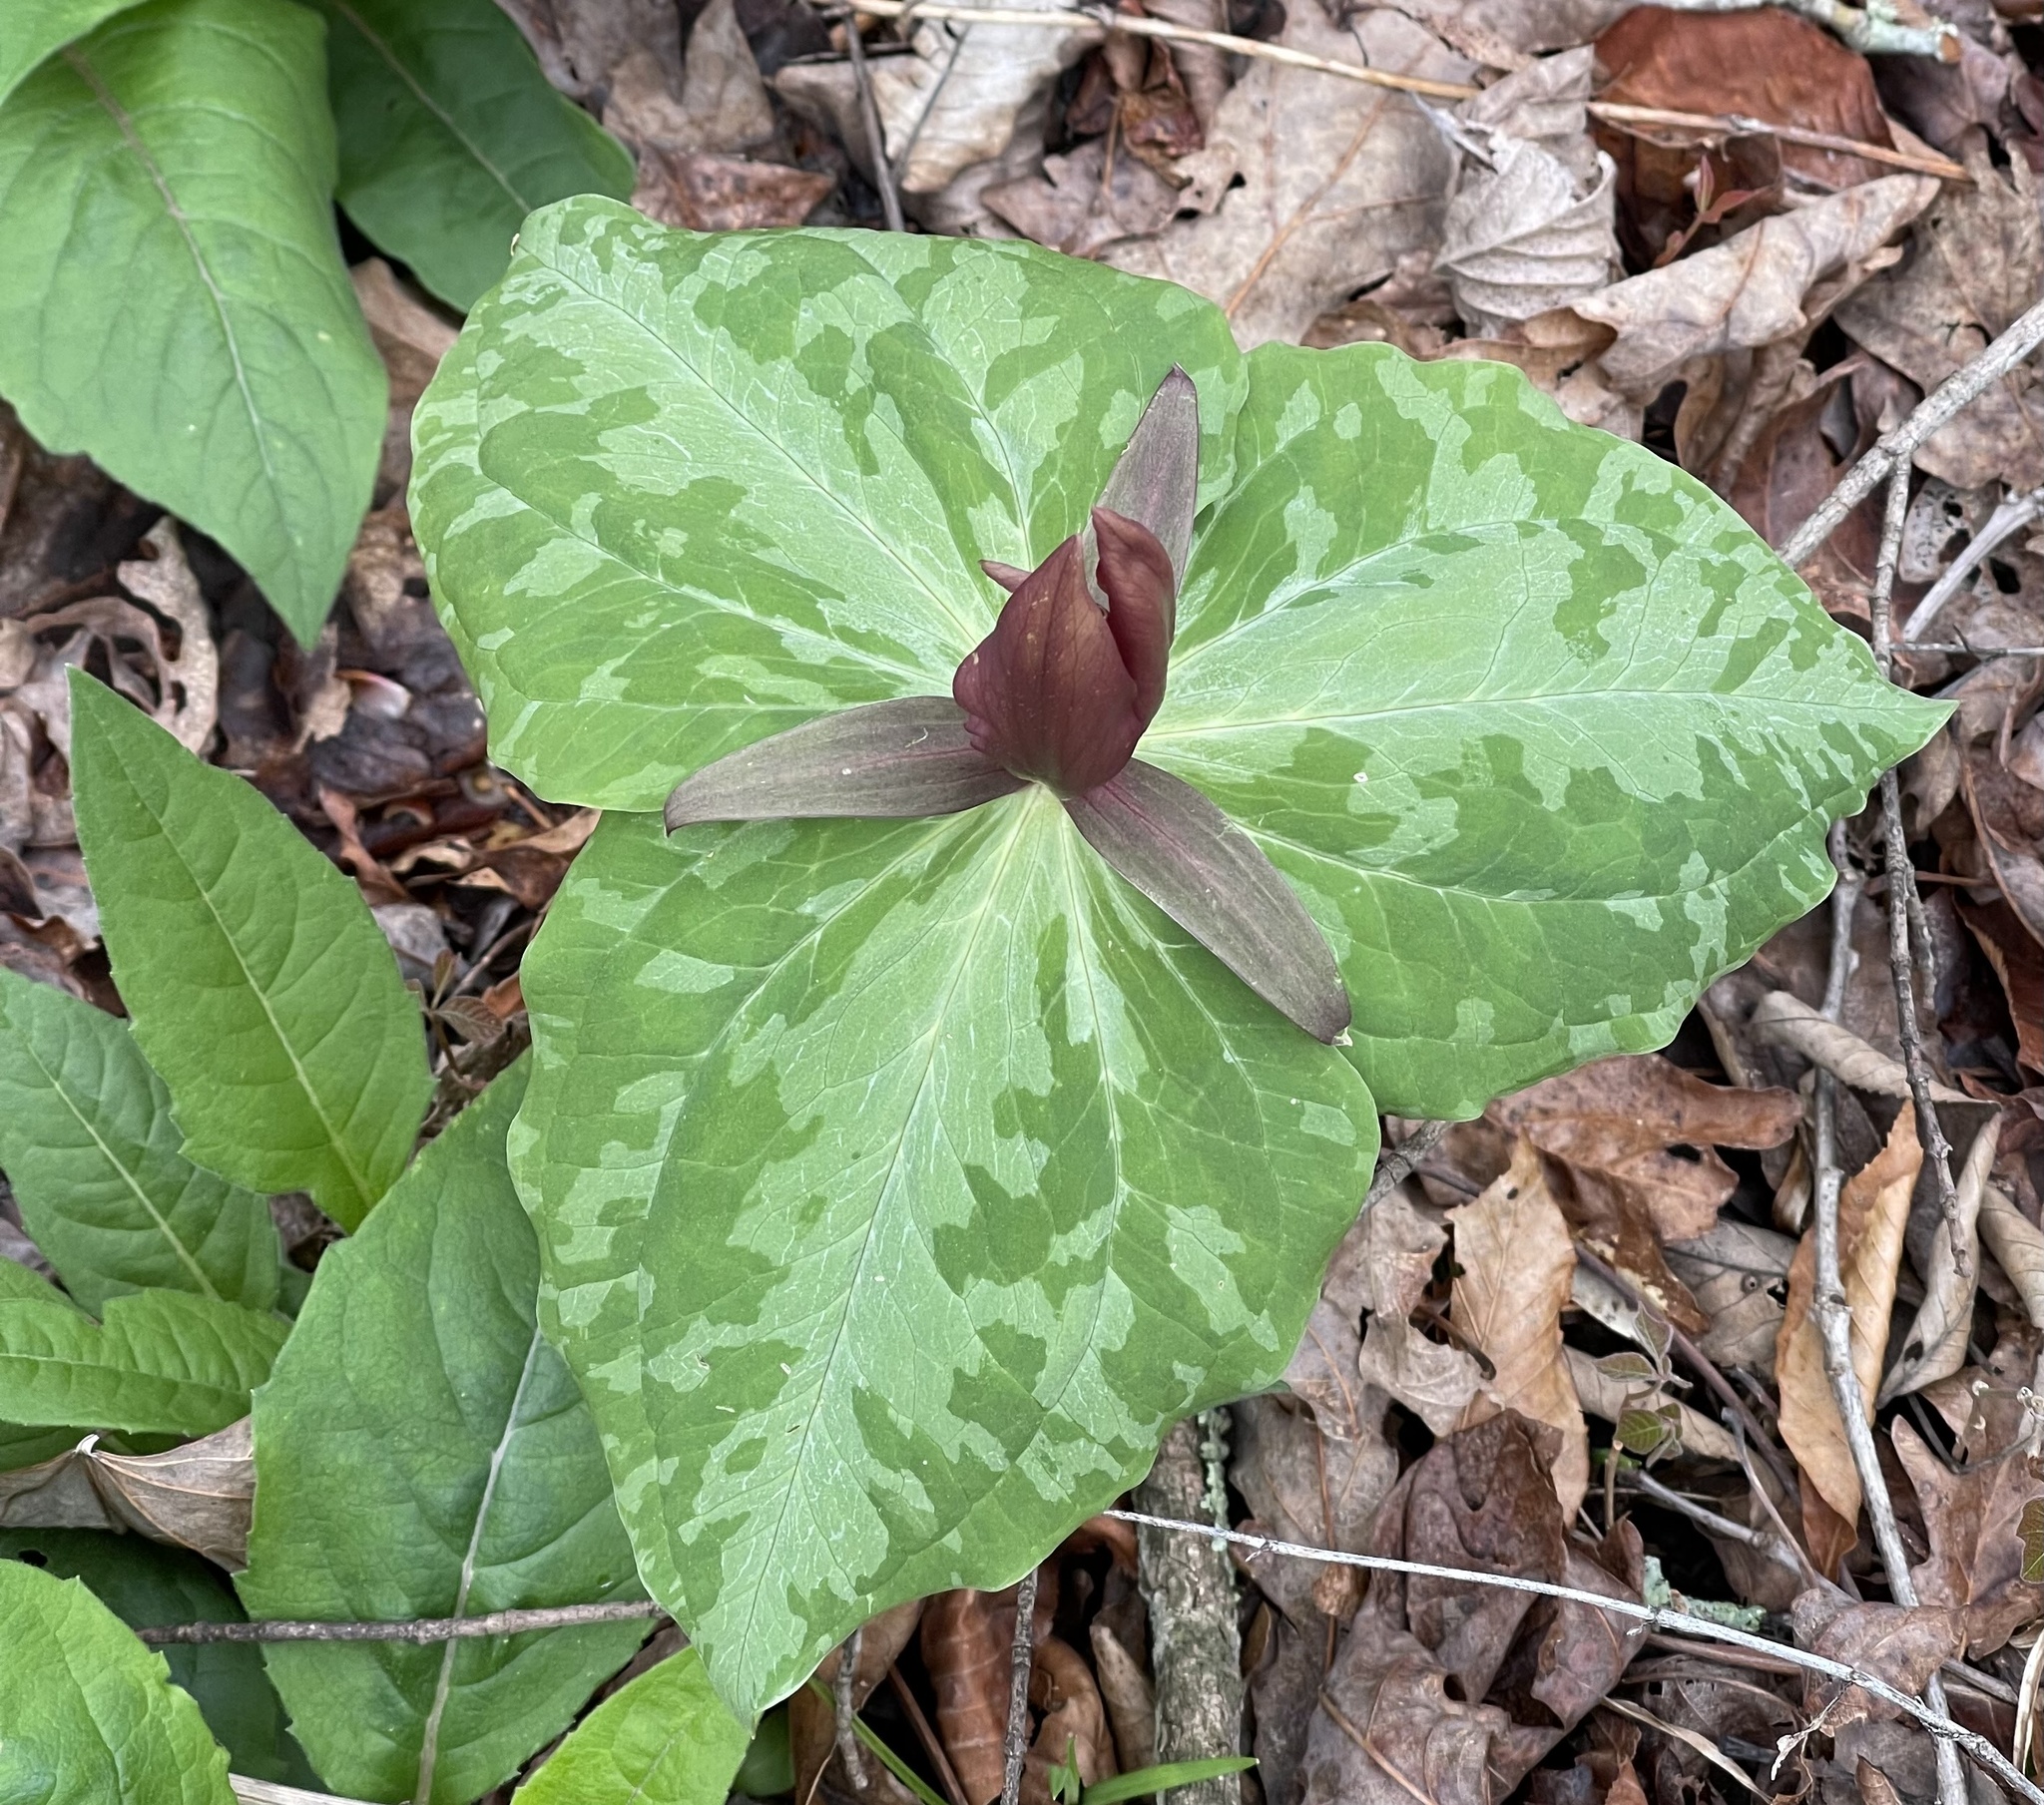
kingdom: Plantae
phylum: Tracheophyta
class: Liliopsida
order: Liliales
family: Melanthiaceae
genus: Trillium
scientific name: Trillium cuneatum
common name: Cuneate trillium
